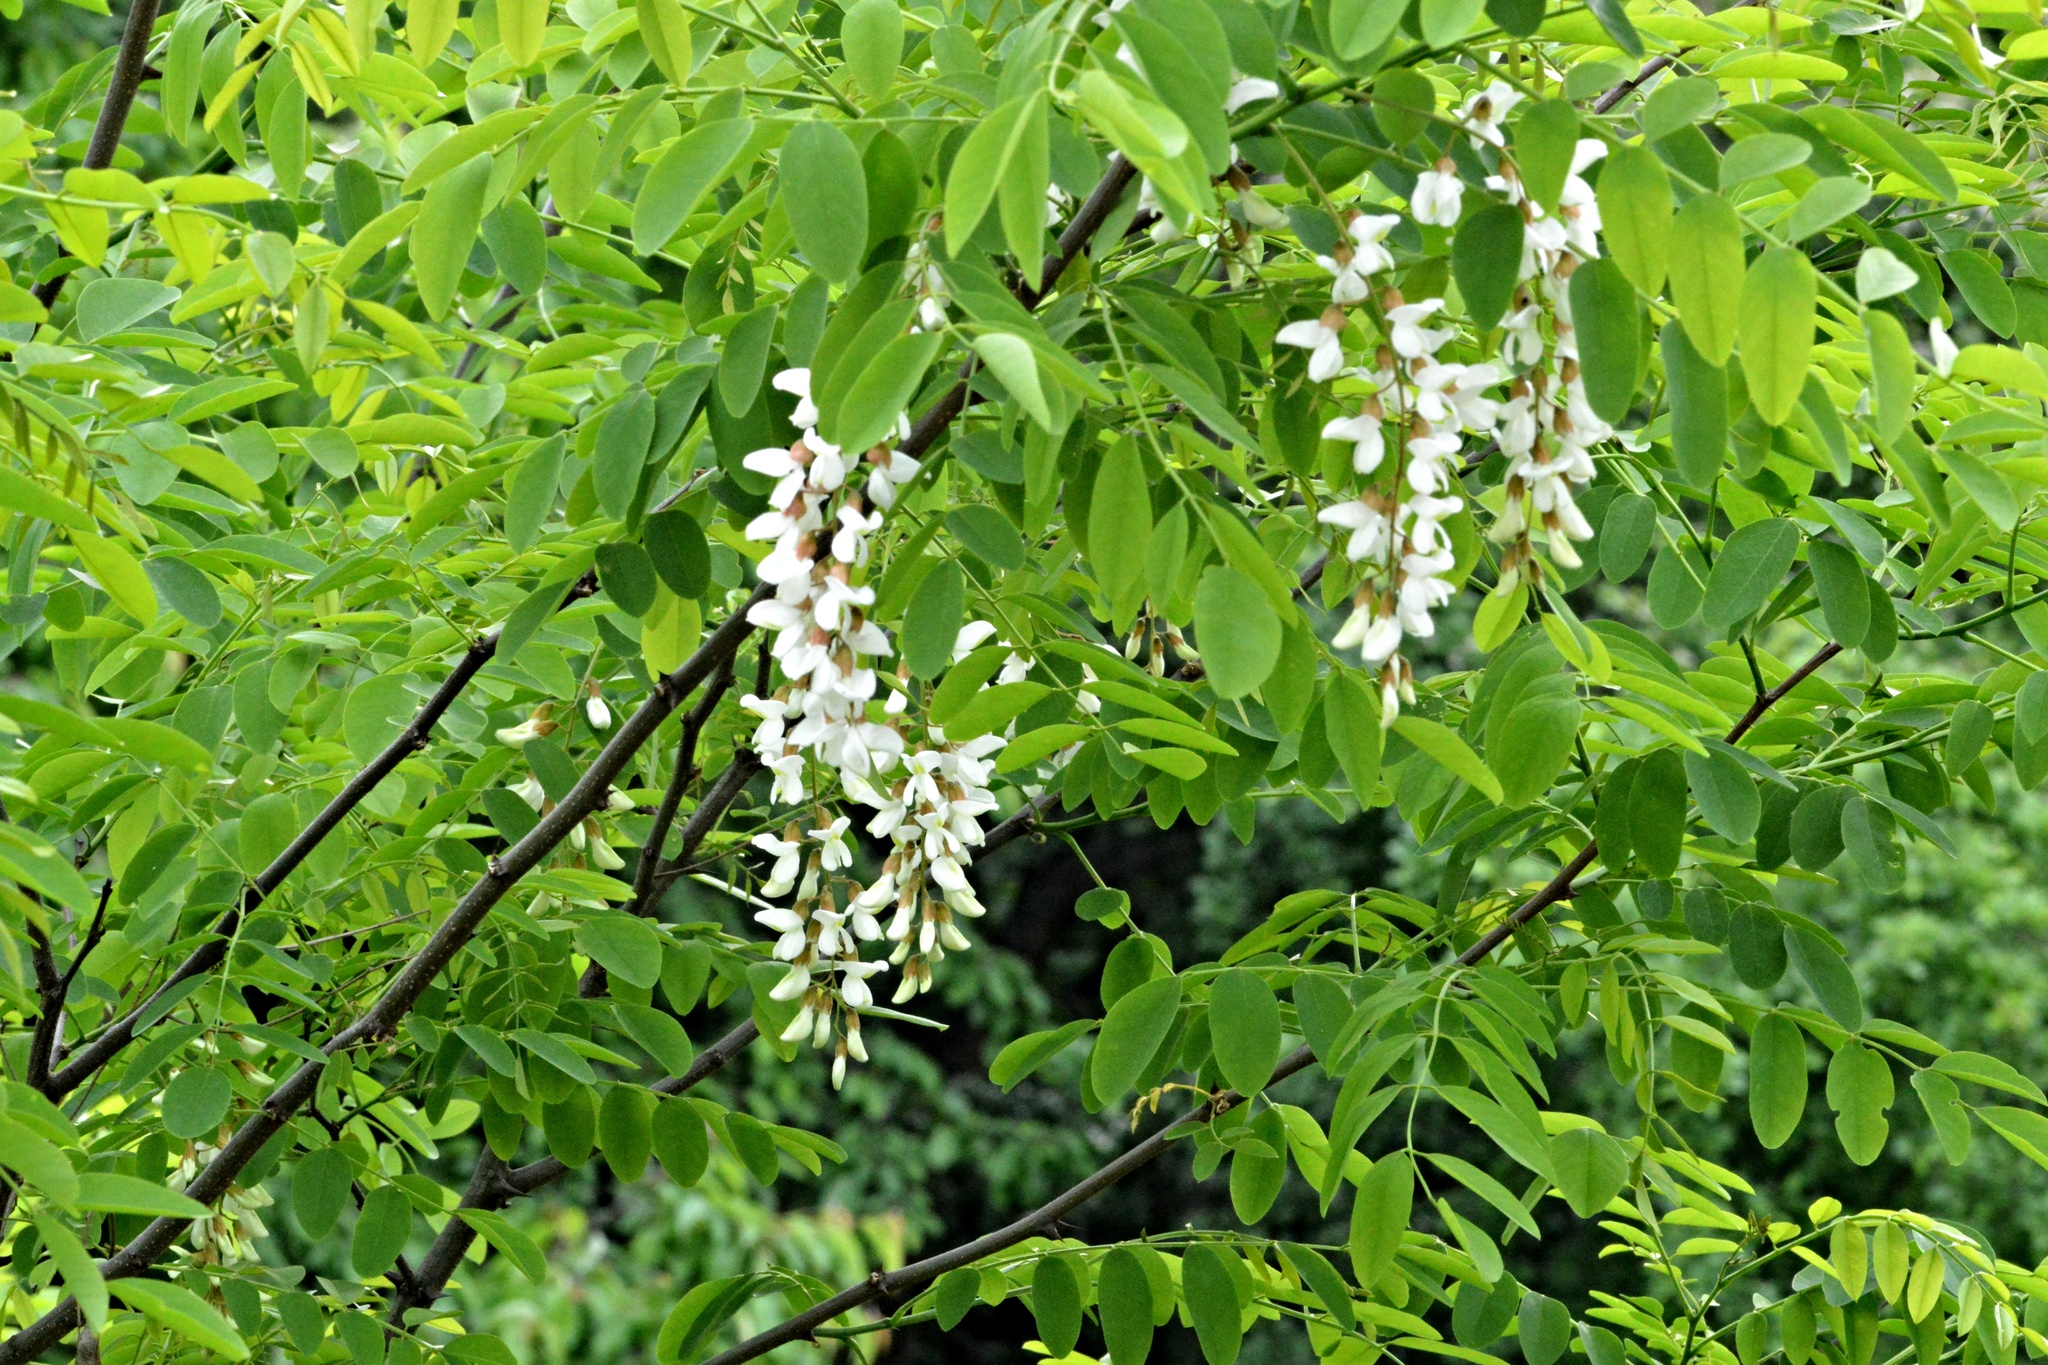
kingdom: Plantae
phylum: Tracheophyta
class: Magnoliopsida
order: Fabales
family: Fabaceae
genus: Robinia
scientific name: Robinia pseudoacacia
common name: Black locust
